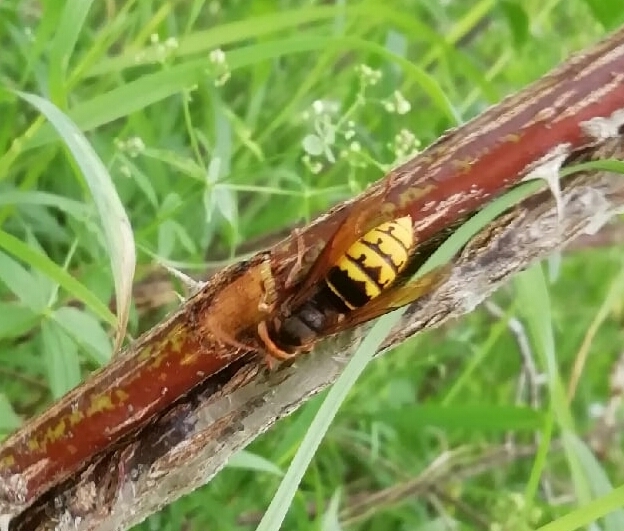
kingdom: Animalia
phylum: Arthropoda
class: Insecta
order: Hymenoptera
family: Vespidae
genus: Vespa
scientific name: Vespa crabro
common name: Hornet
